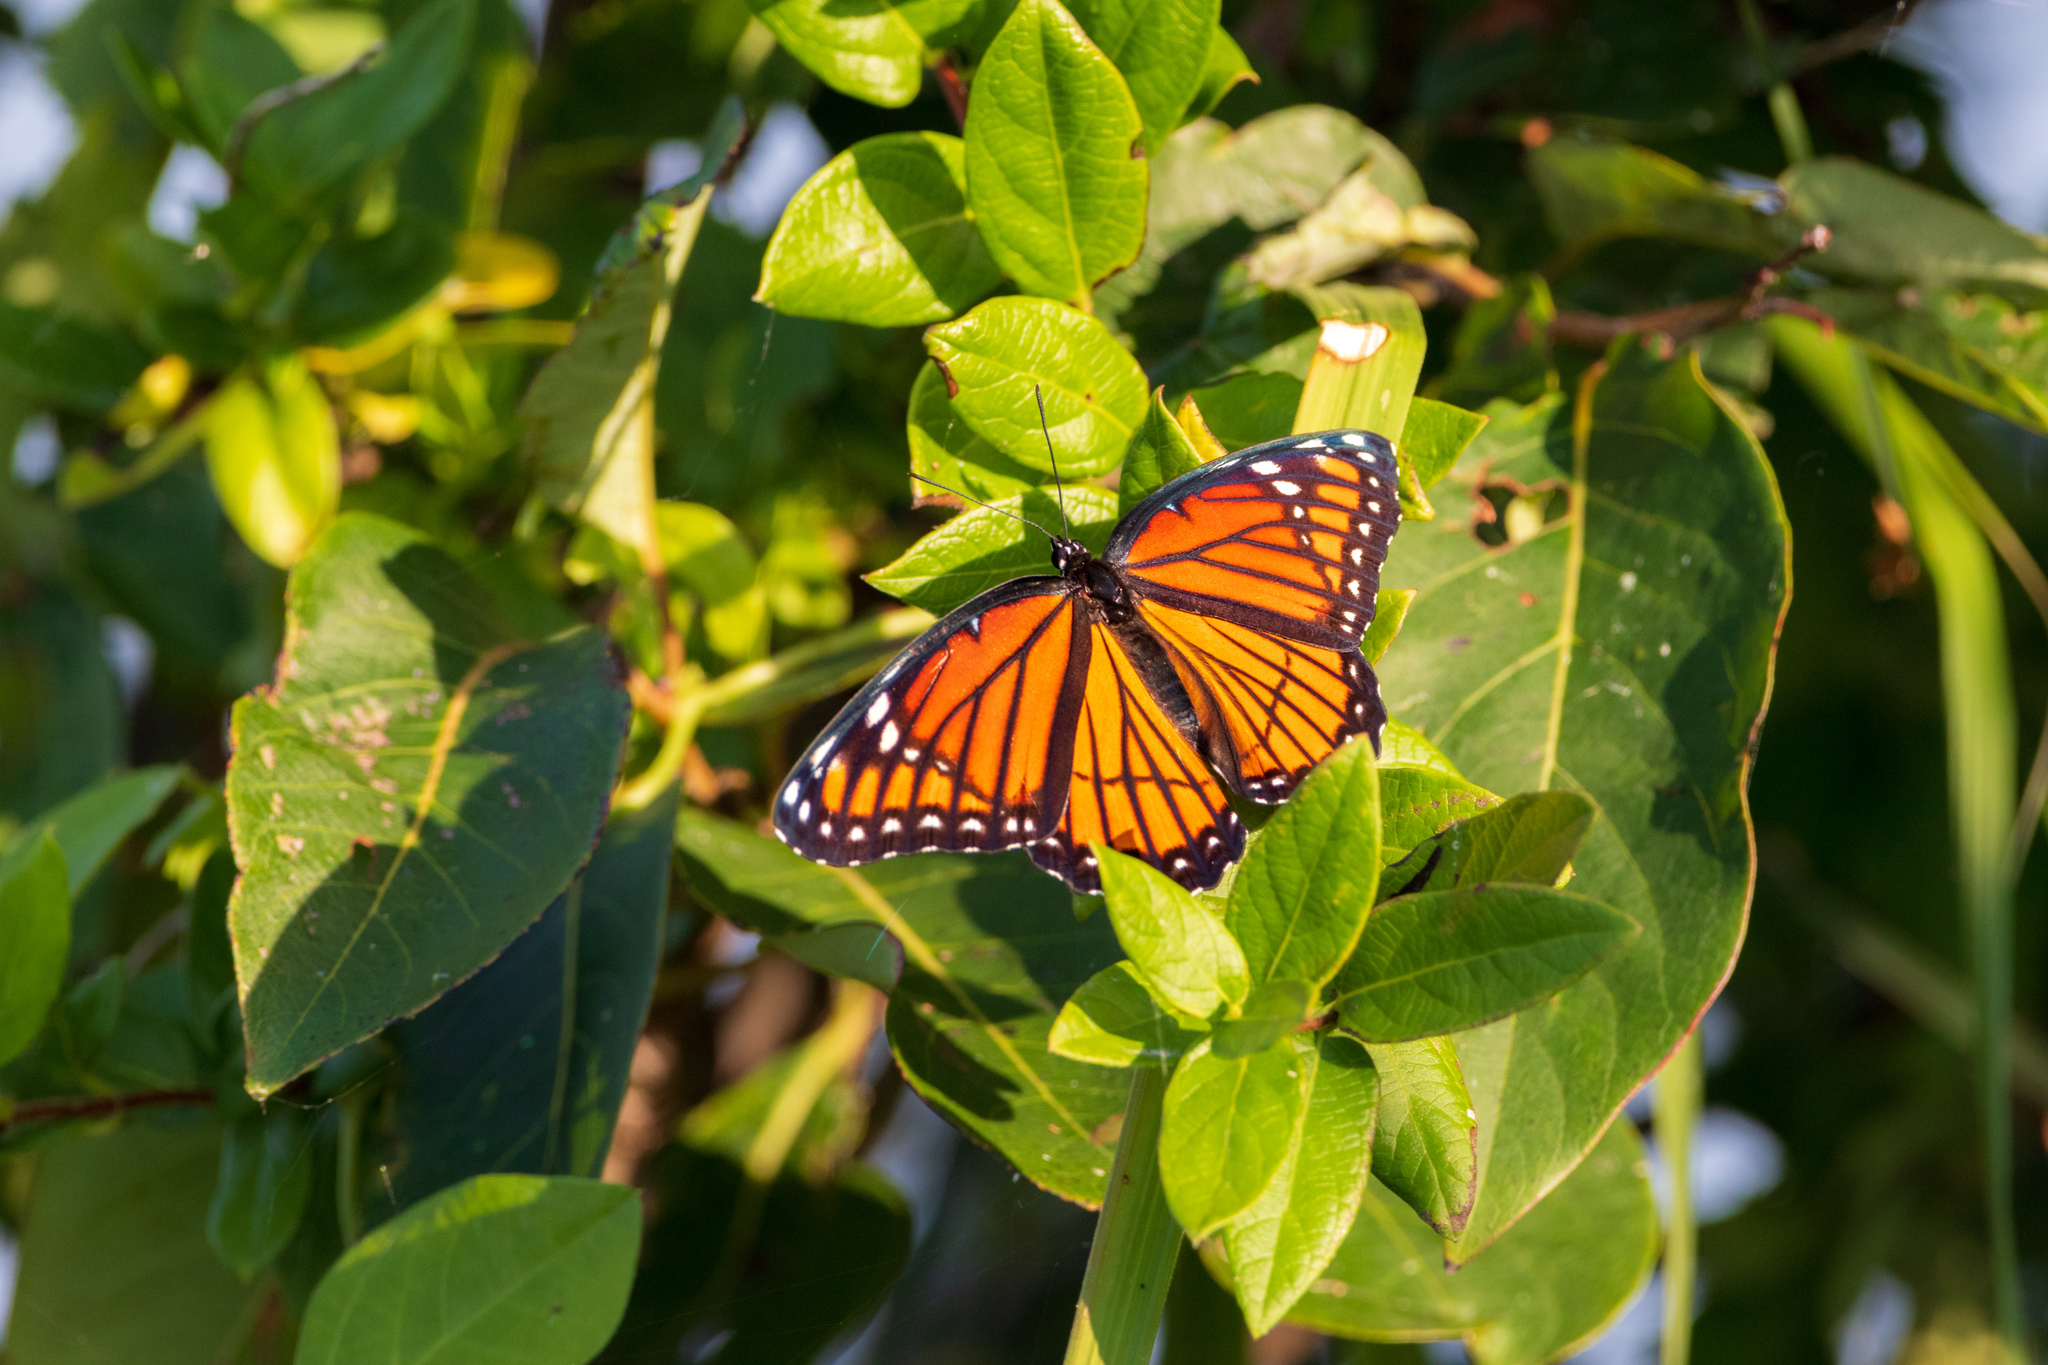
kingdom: Animalia
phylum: Arthropoda
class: Insecta
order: Lepidoptera
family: Nymphalidae
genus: Limenitis
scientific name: Limenitis archippus
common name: Viceroy
